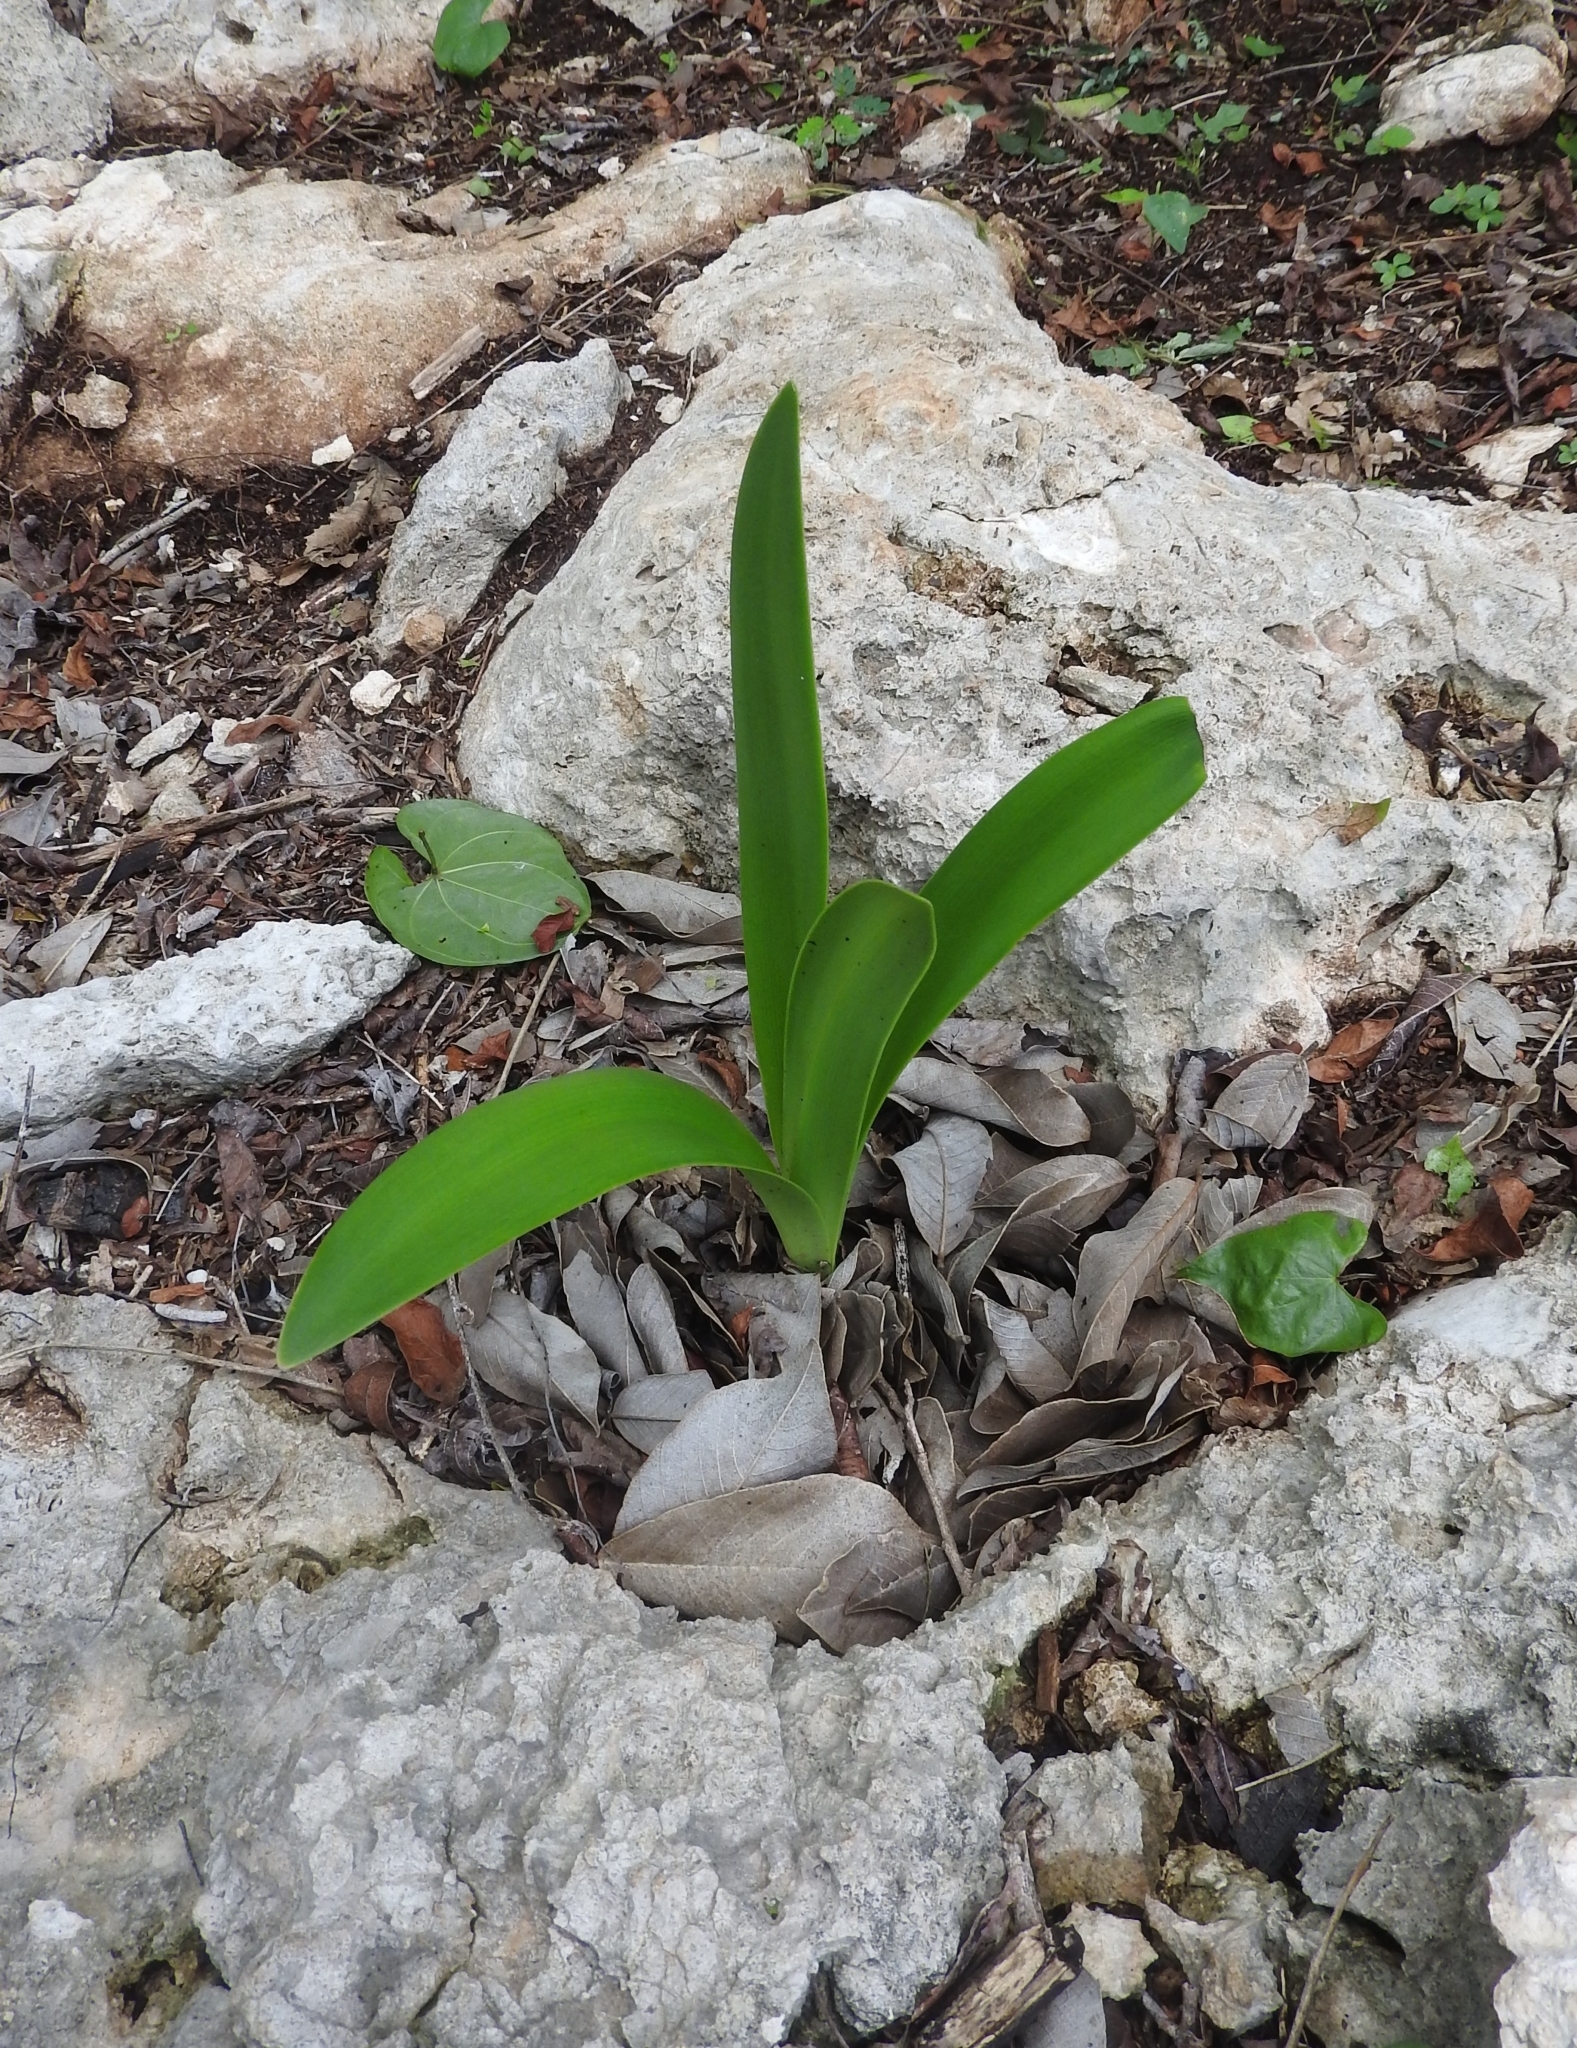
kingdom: Plantae
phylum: Tracheophyta
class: Liliopsida
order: Asparagales
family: Amaryllidaceae
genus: Hymenocallis
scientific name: Hymenocallis littoralis
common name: Beach spiderlily
